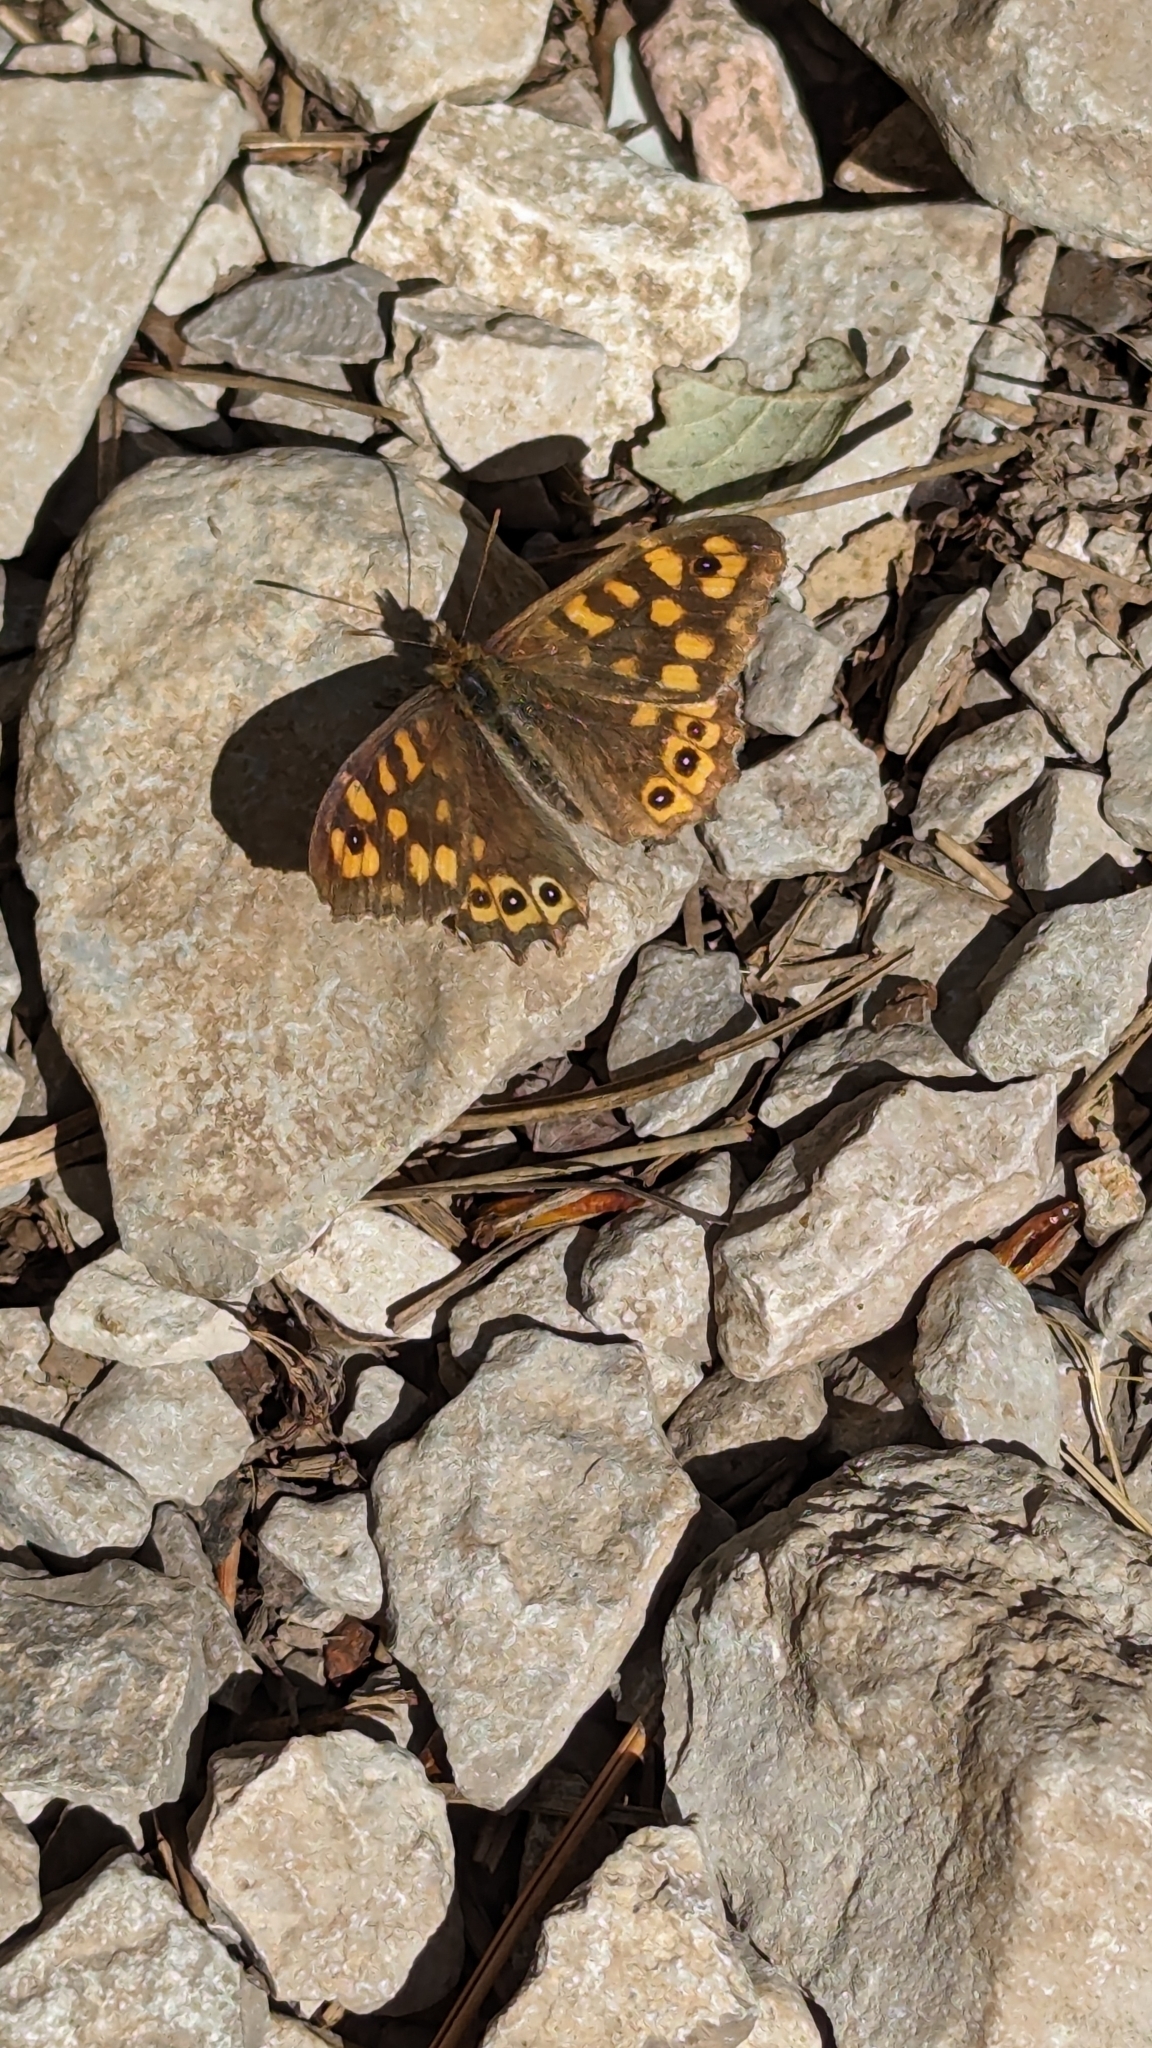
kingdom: Animalia
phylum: Arthropoda
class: Insecta
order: Lepidoptera
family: Nymphalidae
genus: Pararge
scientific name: Pararge aegeria
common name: Speckled wood
